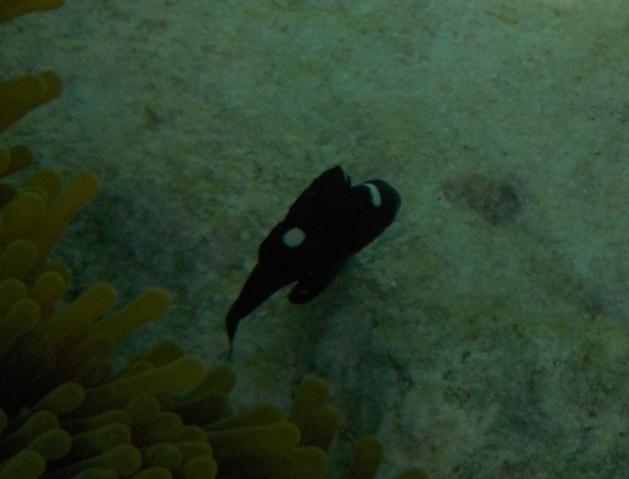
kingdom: Animalia
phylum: Chordata
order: Perciformes
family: Pomacentridae
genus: Dascyllus
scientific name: Dascyllus trimaculatus
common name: Threespot dascyllus
